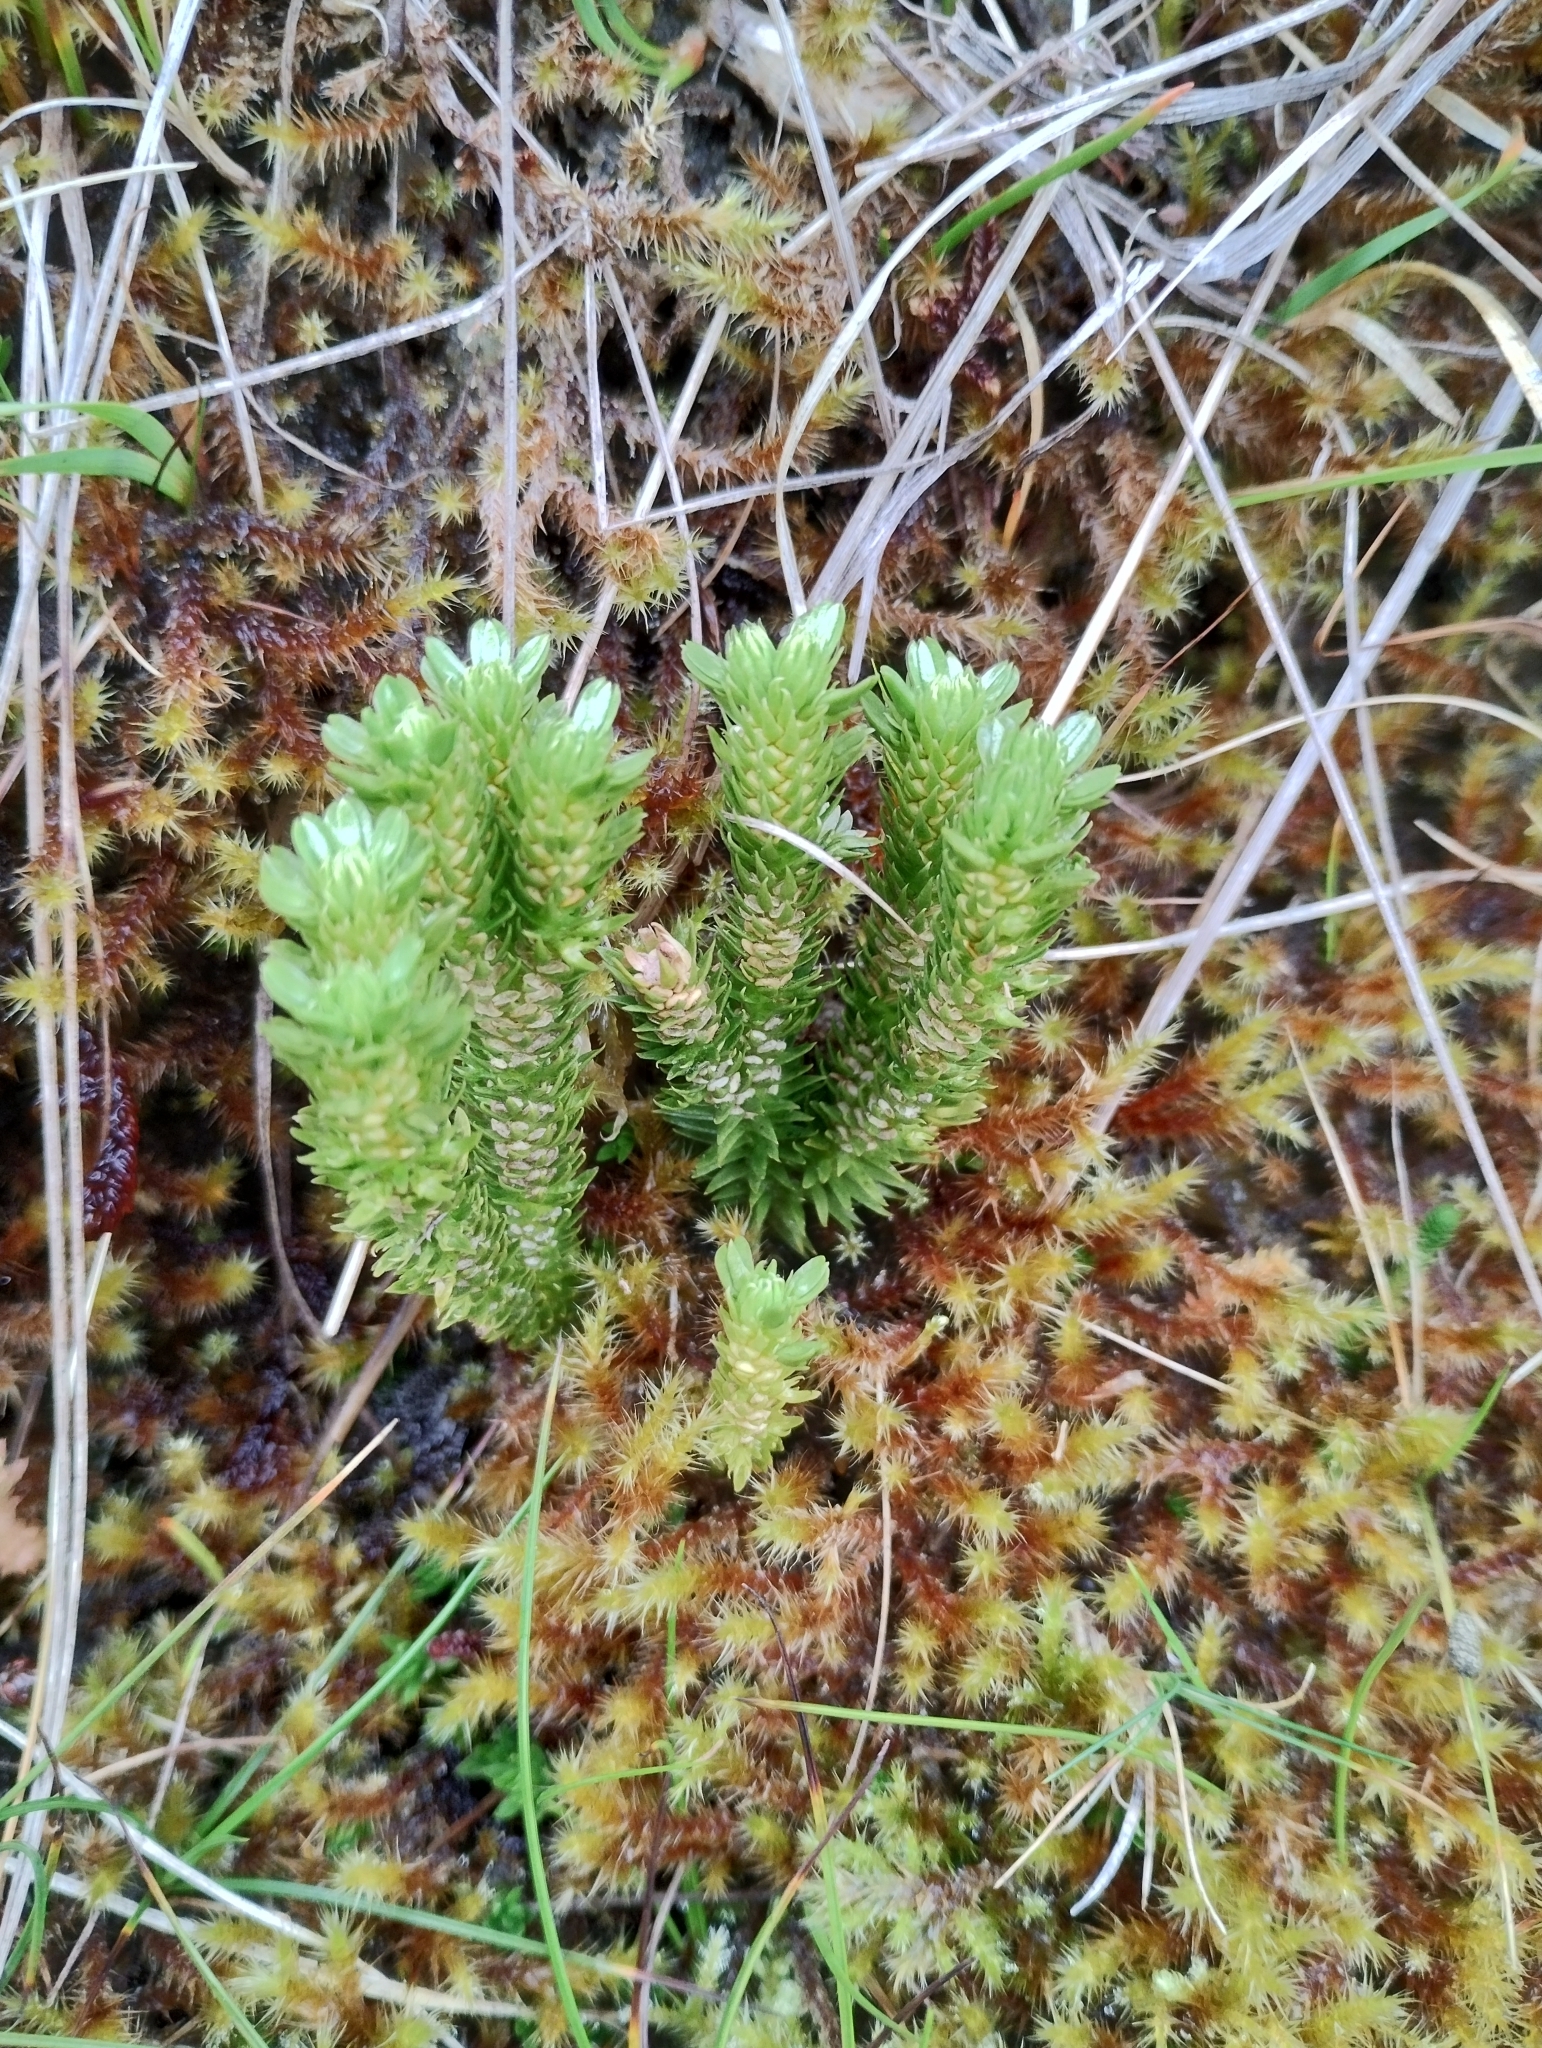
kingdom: Plantae
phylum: Tracheophyta
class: Lycopodiopsida
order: Lycopodiales
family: Lycopodiaceae
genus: Huperzia
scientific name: Huperzia selago
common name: Northern firmoss
